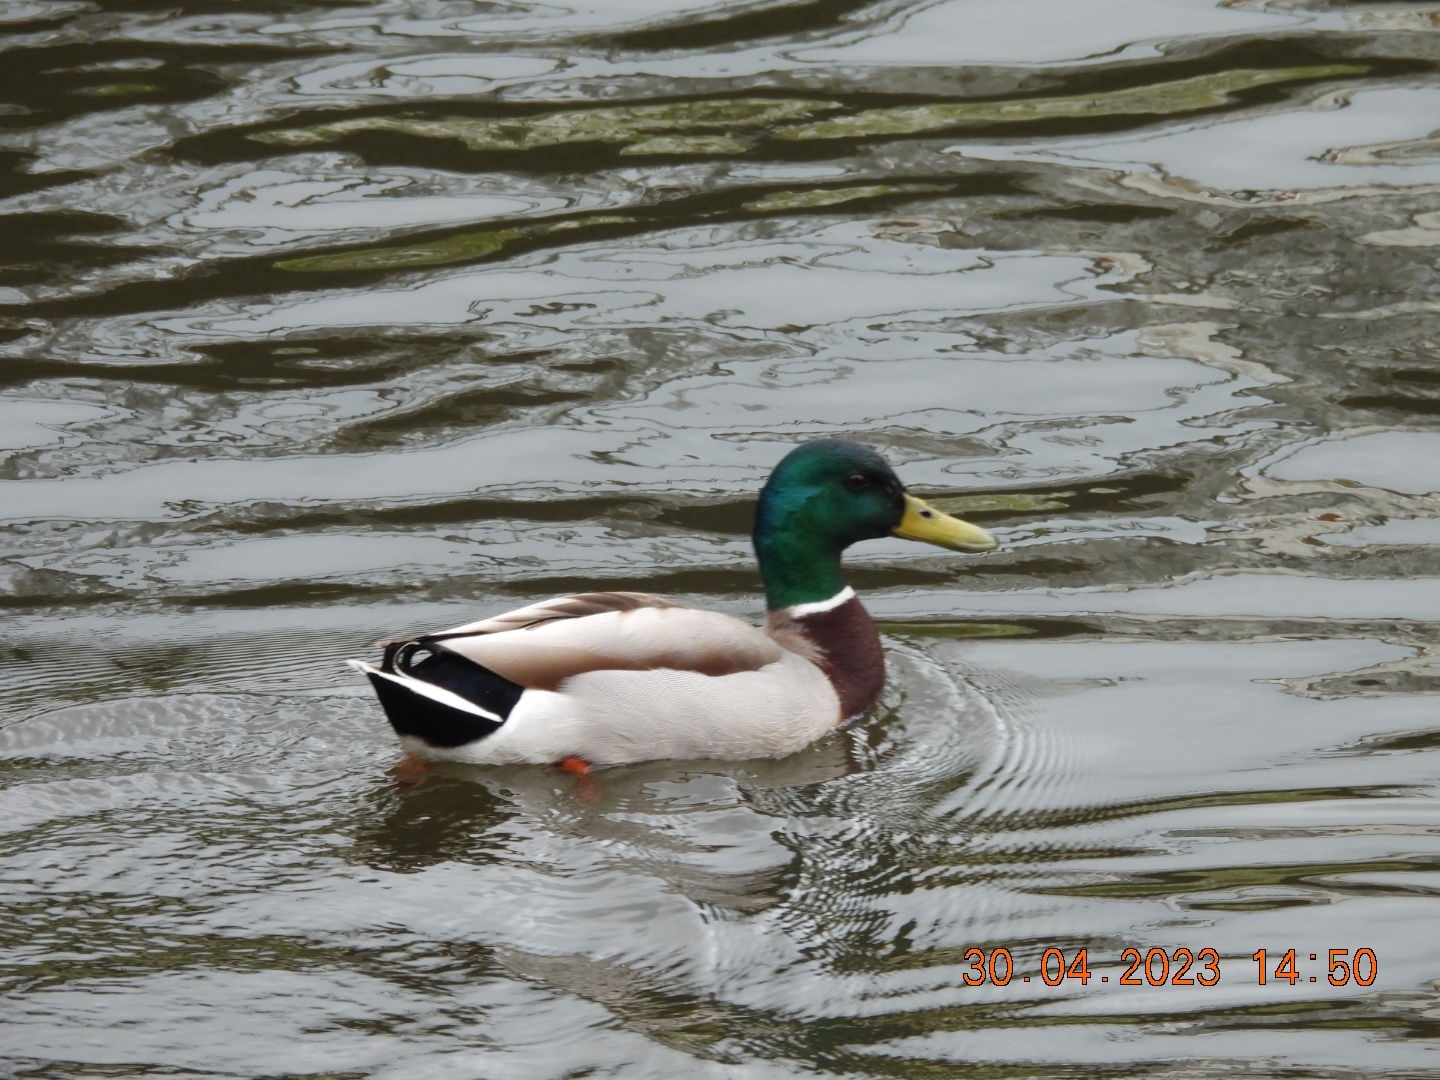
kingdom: Animalia
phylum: Chordata
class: Aves
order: Anseriformes
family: Anatidae
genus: Anas
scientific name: Anas platyrhynchos
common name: Mallard
